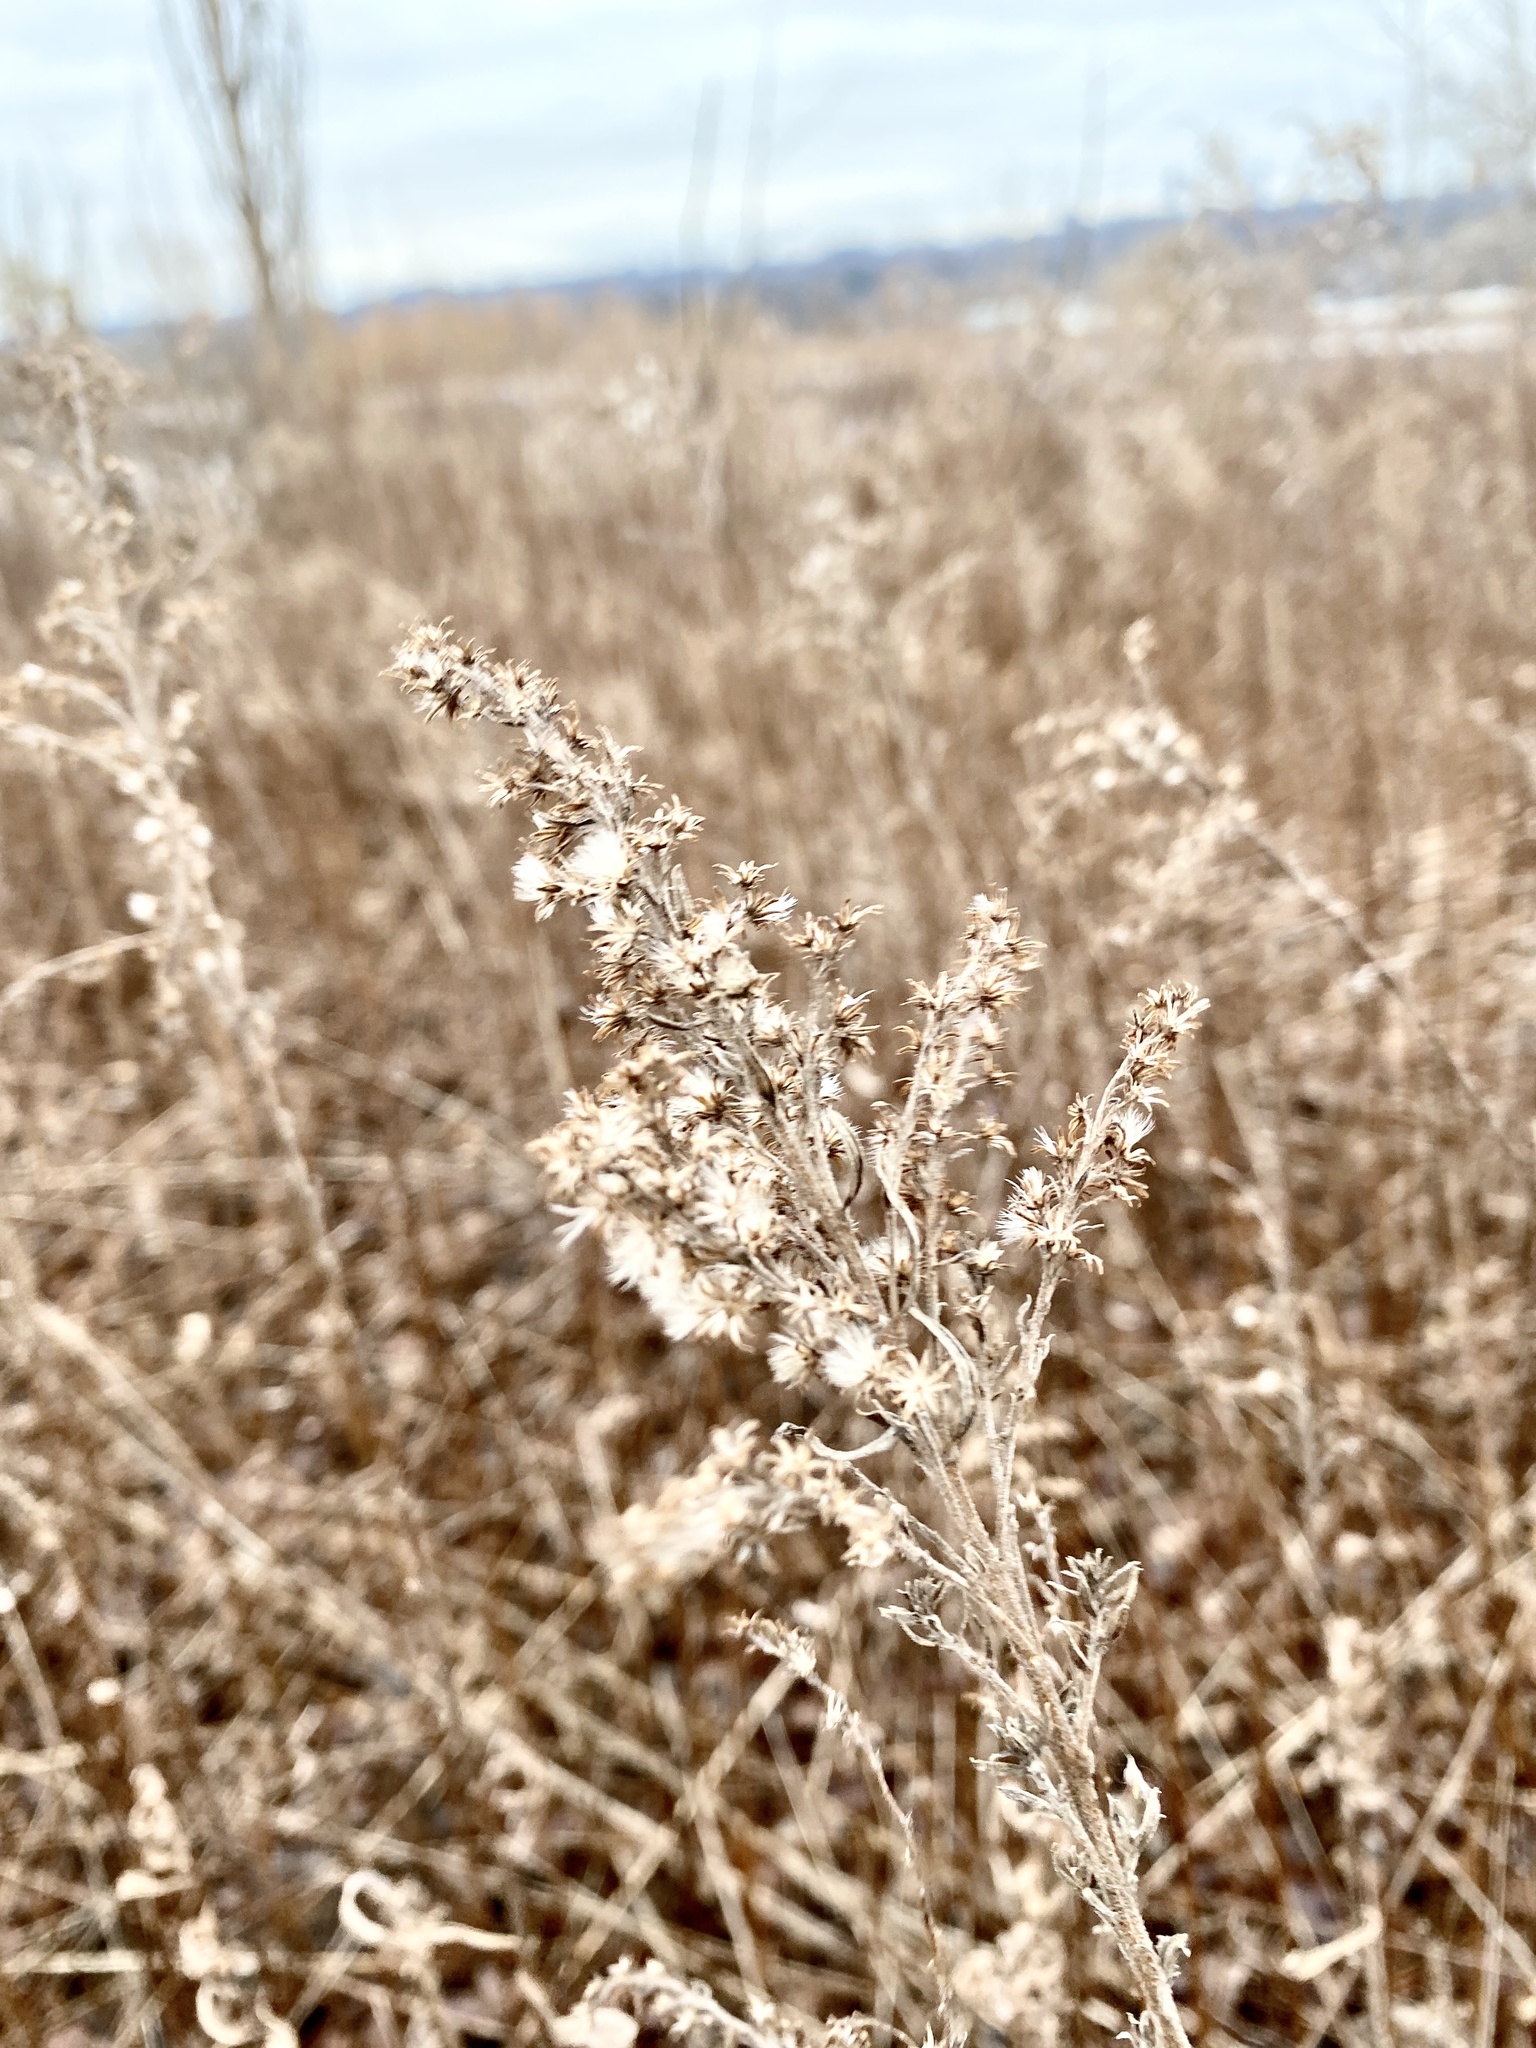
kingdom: Animalia
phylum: Arthropoda
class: Insecta
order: Diptera
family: Tephritidae
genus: Eurosta
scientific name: Eurosta solidaginis
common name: Goldenrod gall fly
